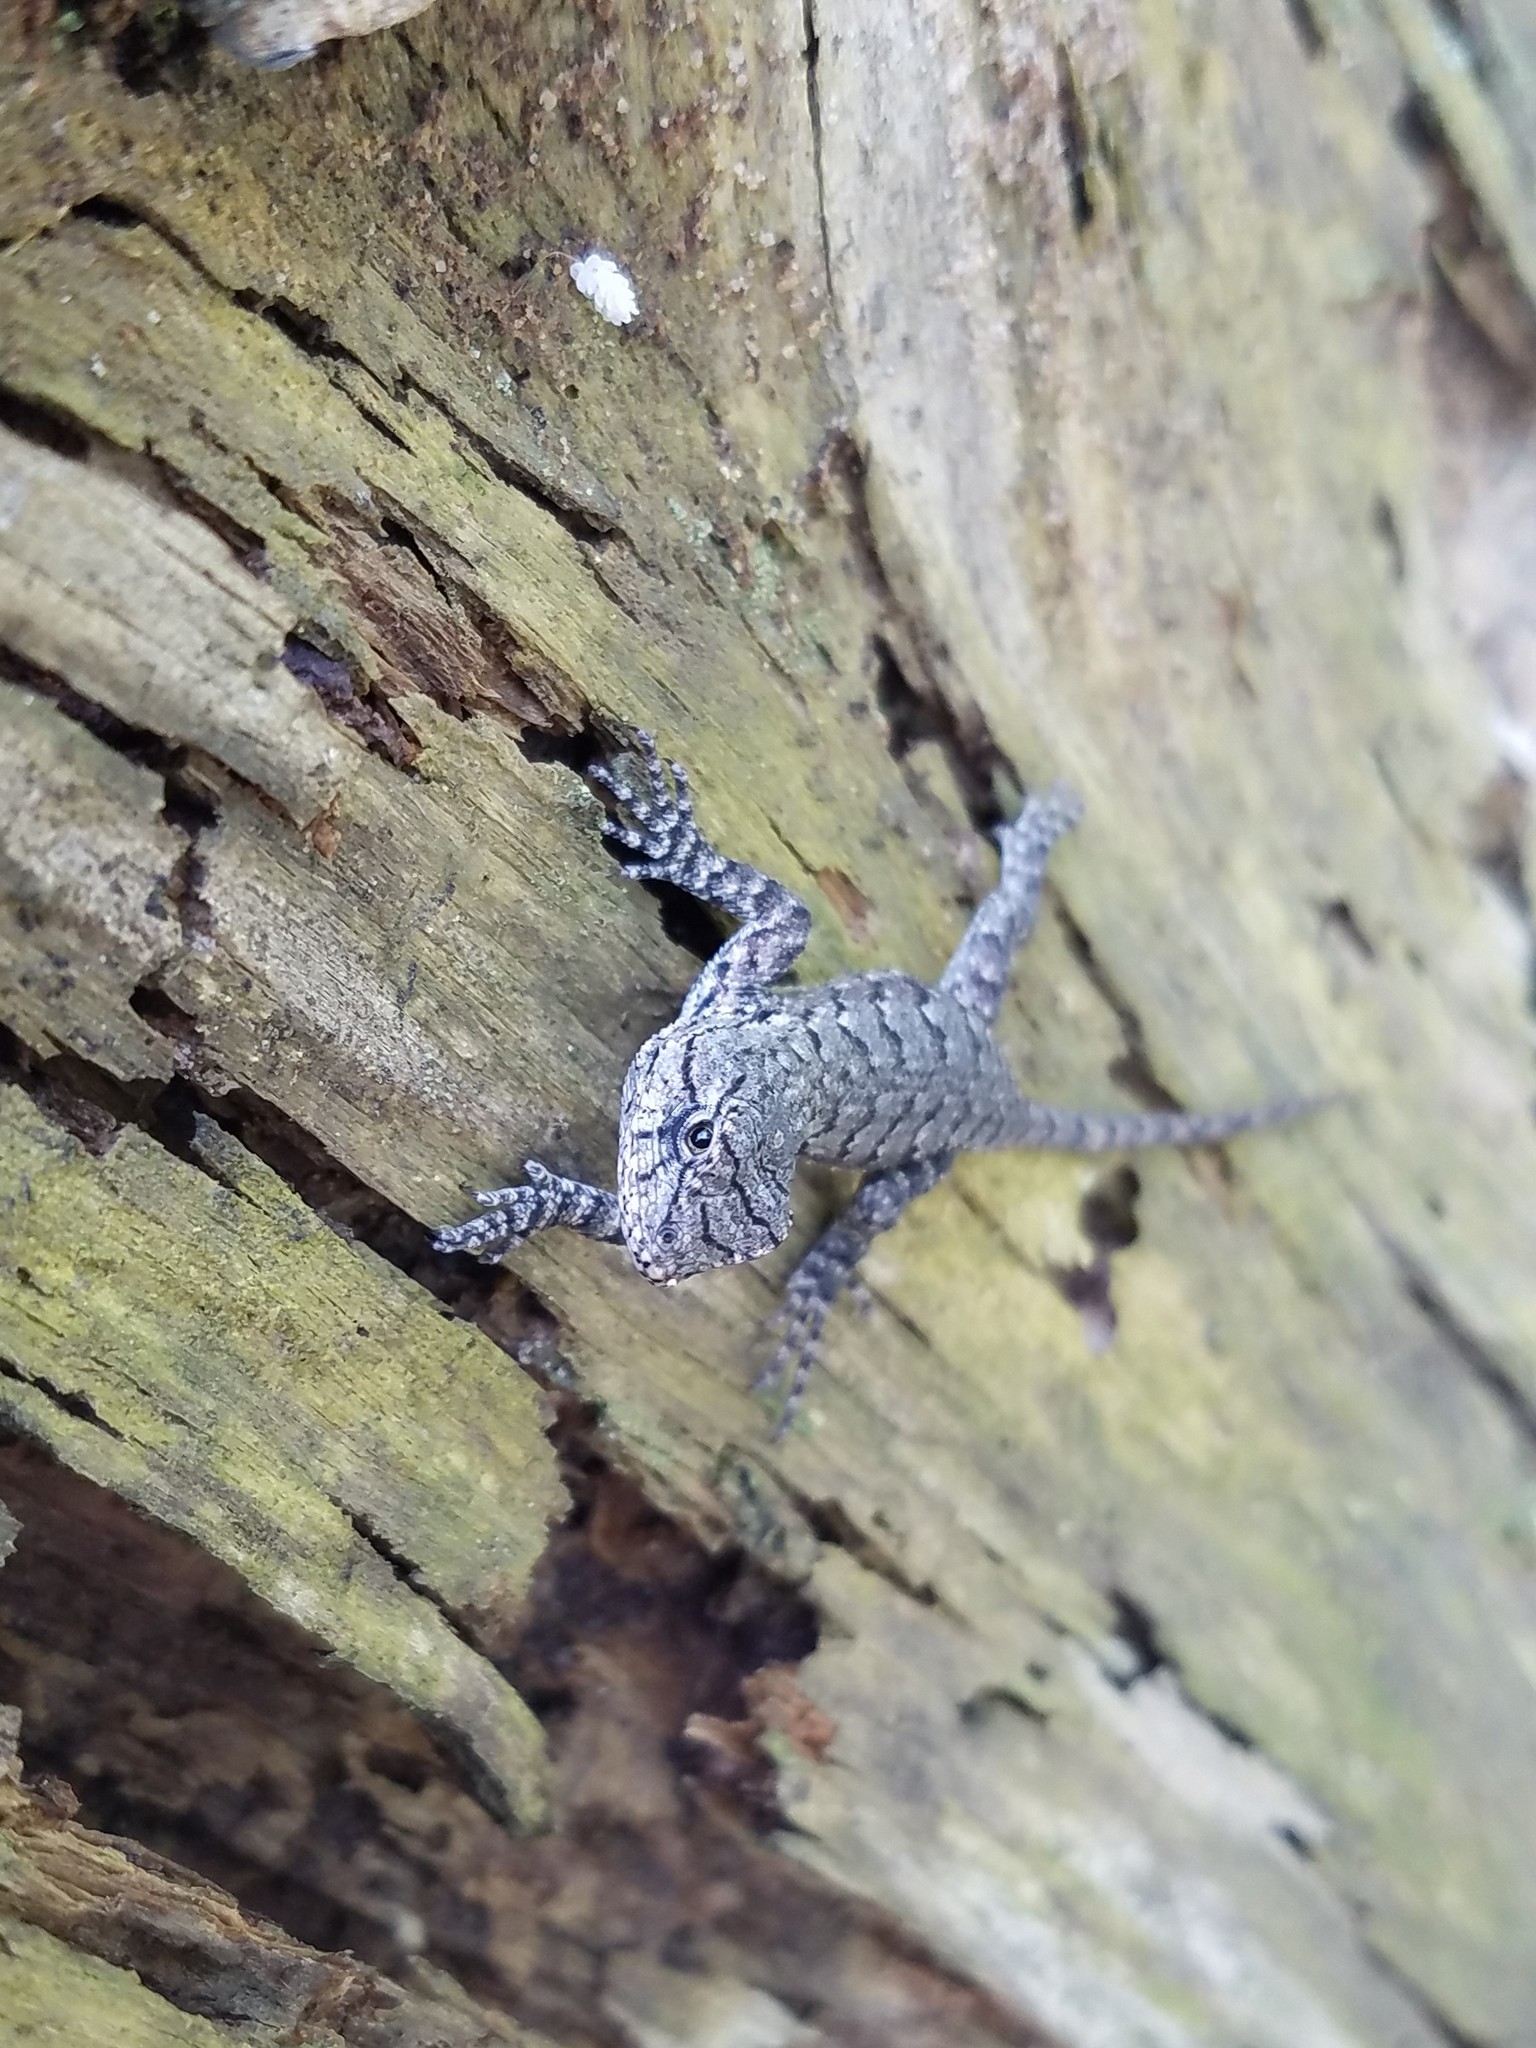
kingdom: Animalia
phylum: Chordata
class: Squamata
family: Phrynosomatidae
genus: Sceloporus
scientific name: Sceloporus undulatus
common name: Eastern fence lizard
